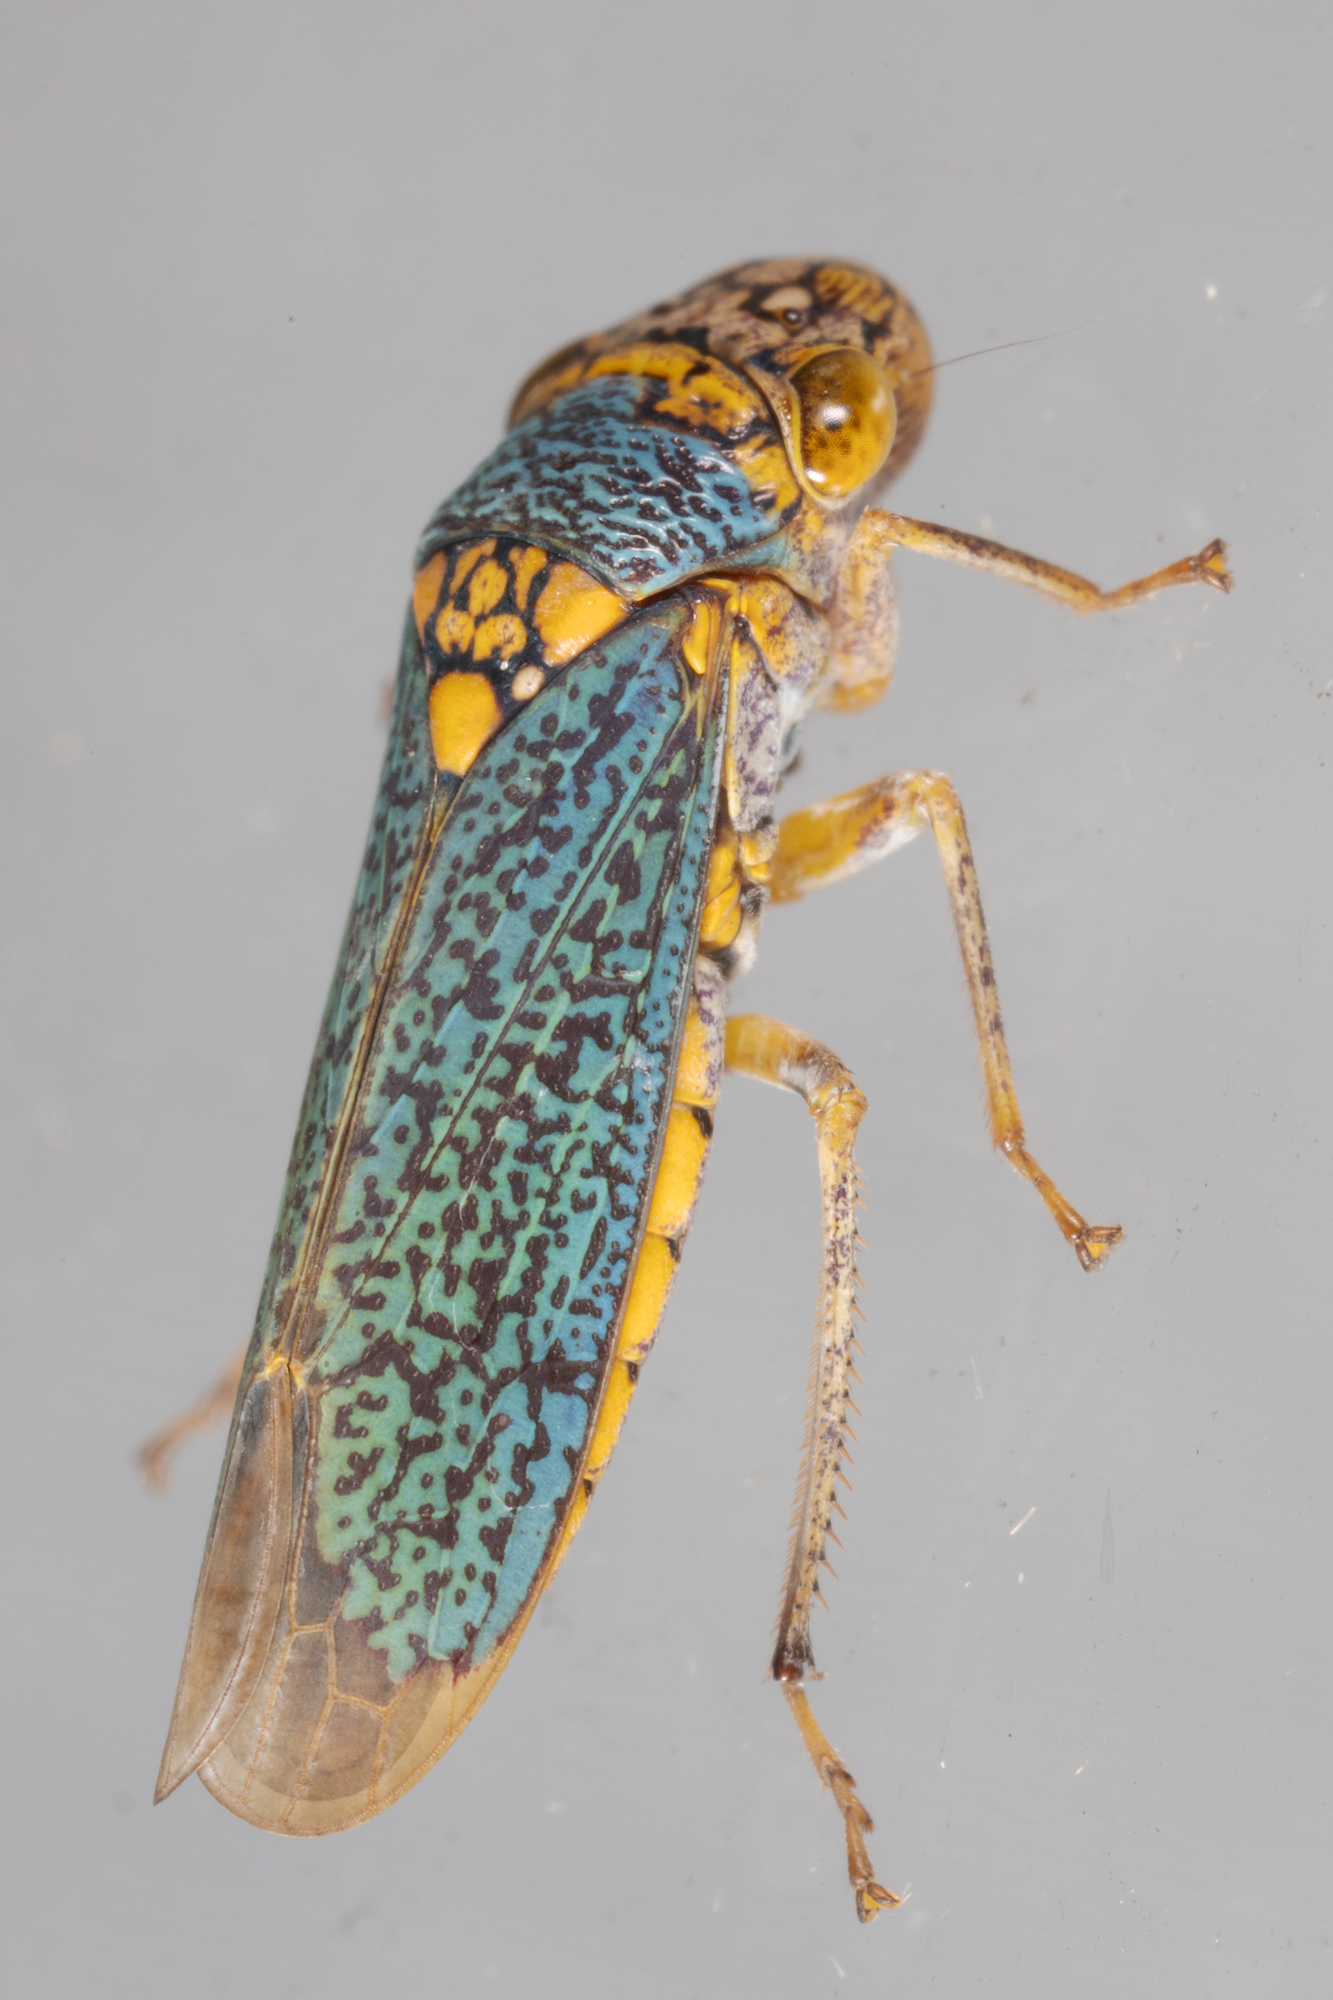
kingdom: Animalia
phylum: Arthropoda
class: Insecta
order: Hemiptera
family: Cicadellidae
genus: Oncometopia
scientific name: Oncometopia orbona
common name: Broad-headed sharpshooter
